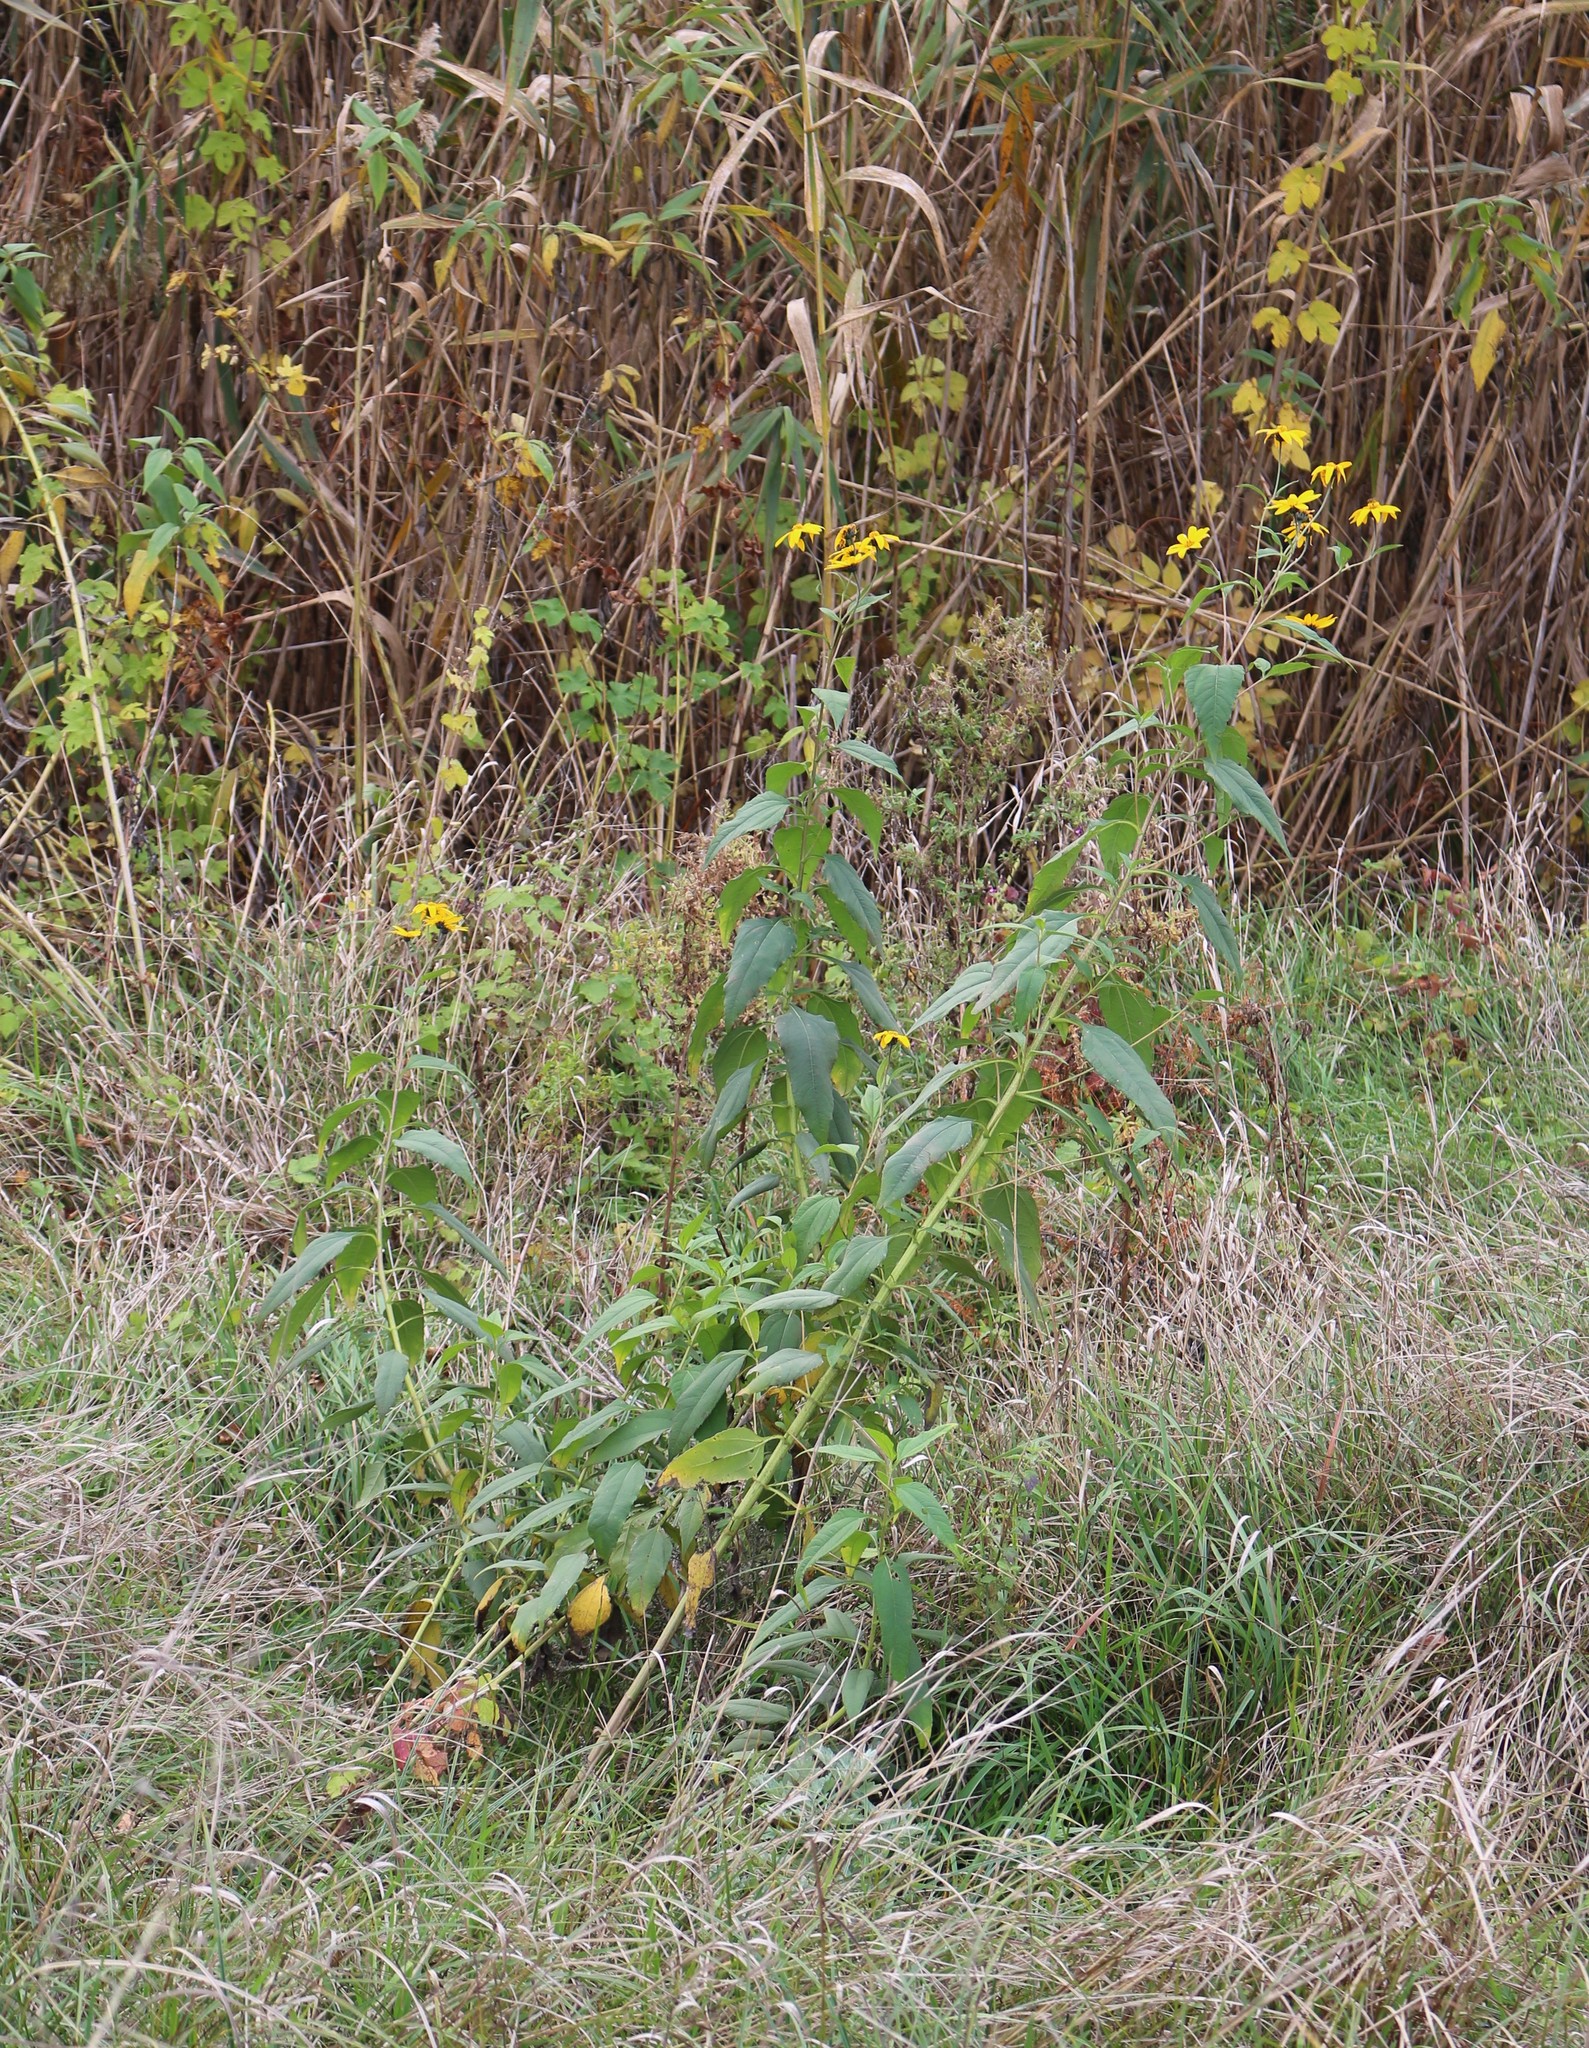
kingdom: Plantae
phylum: Tracheophyta
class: Magnoliopsida
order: Asterales
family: Asteraceae
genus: Helianthus
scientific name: Helianthus tuberosus
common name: Jerusalem artichoke
